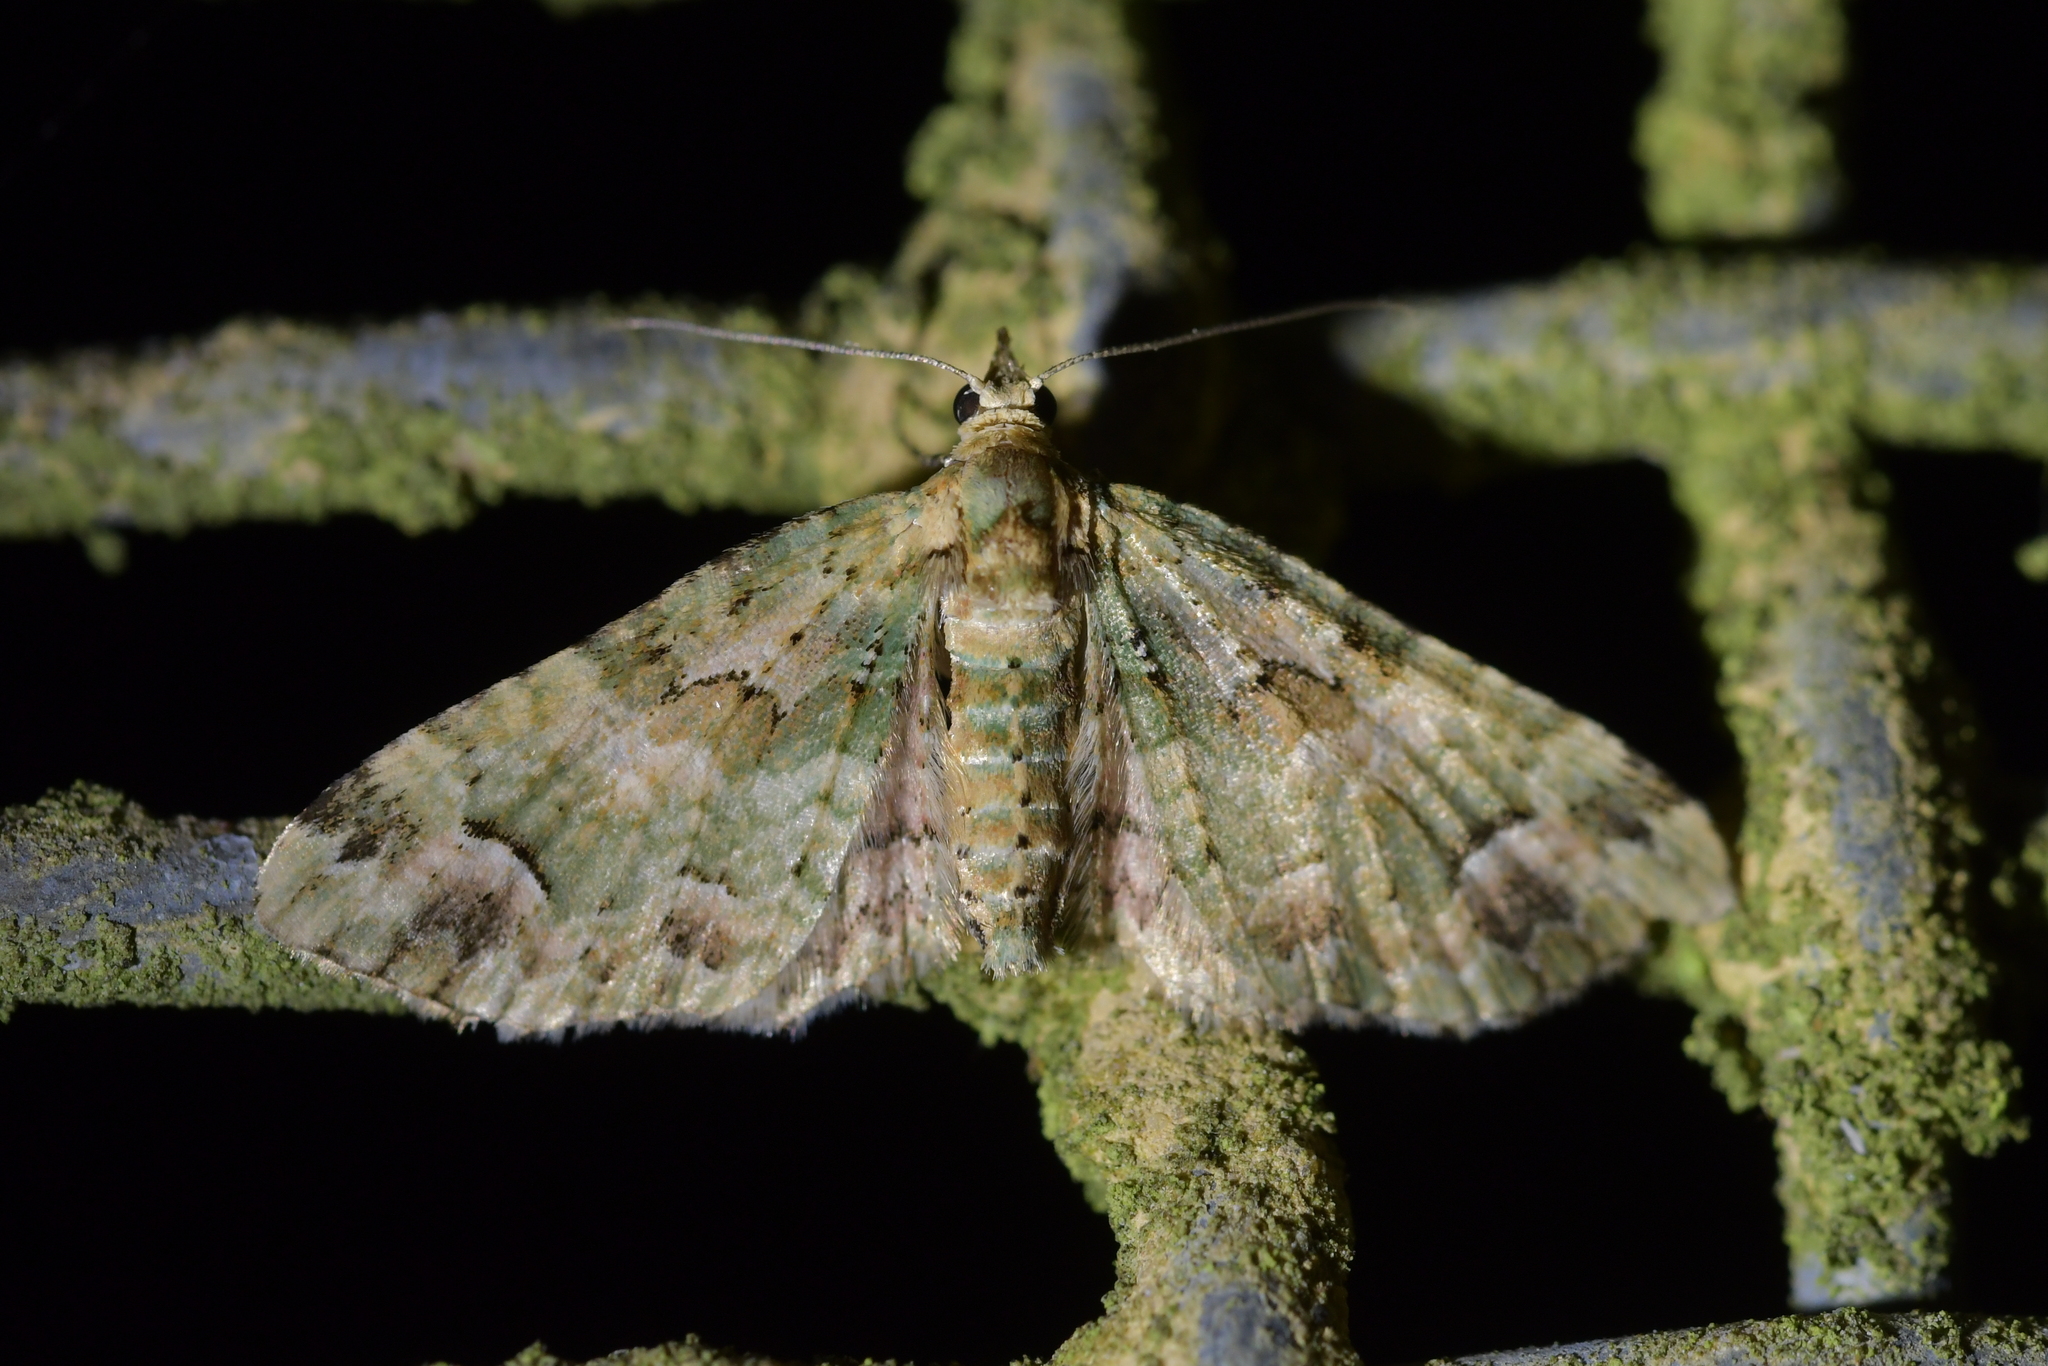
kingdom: Animalia
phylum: Arthropoda
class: Insecta
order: Lepidoptera
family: Geometridae
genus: Pasiphila
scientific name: Pasiphila semochlora
